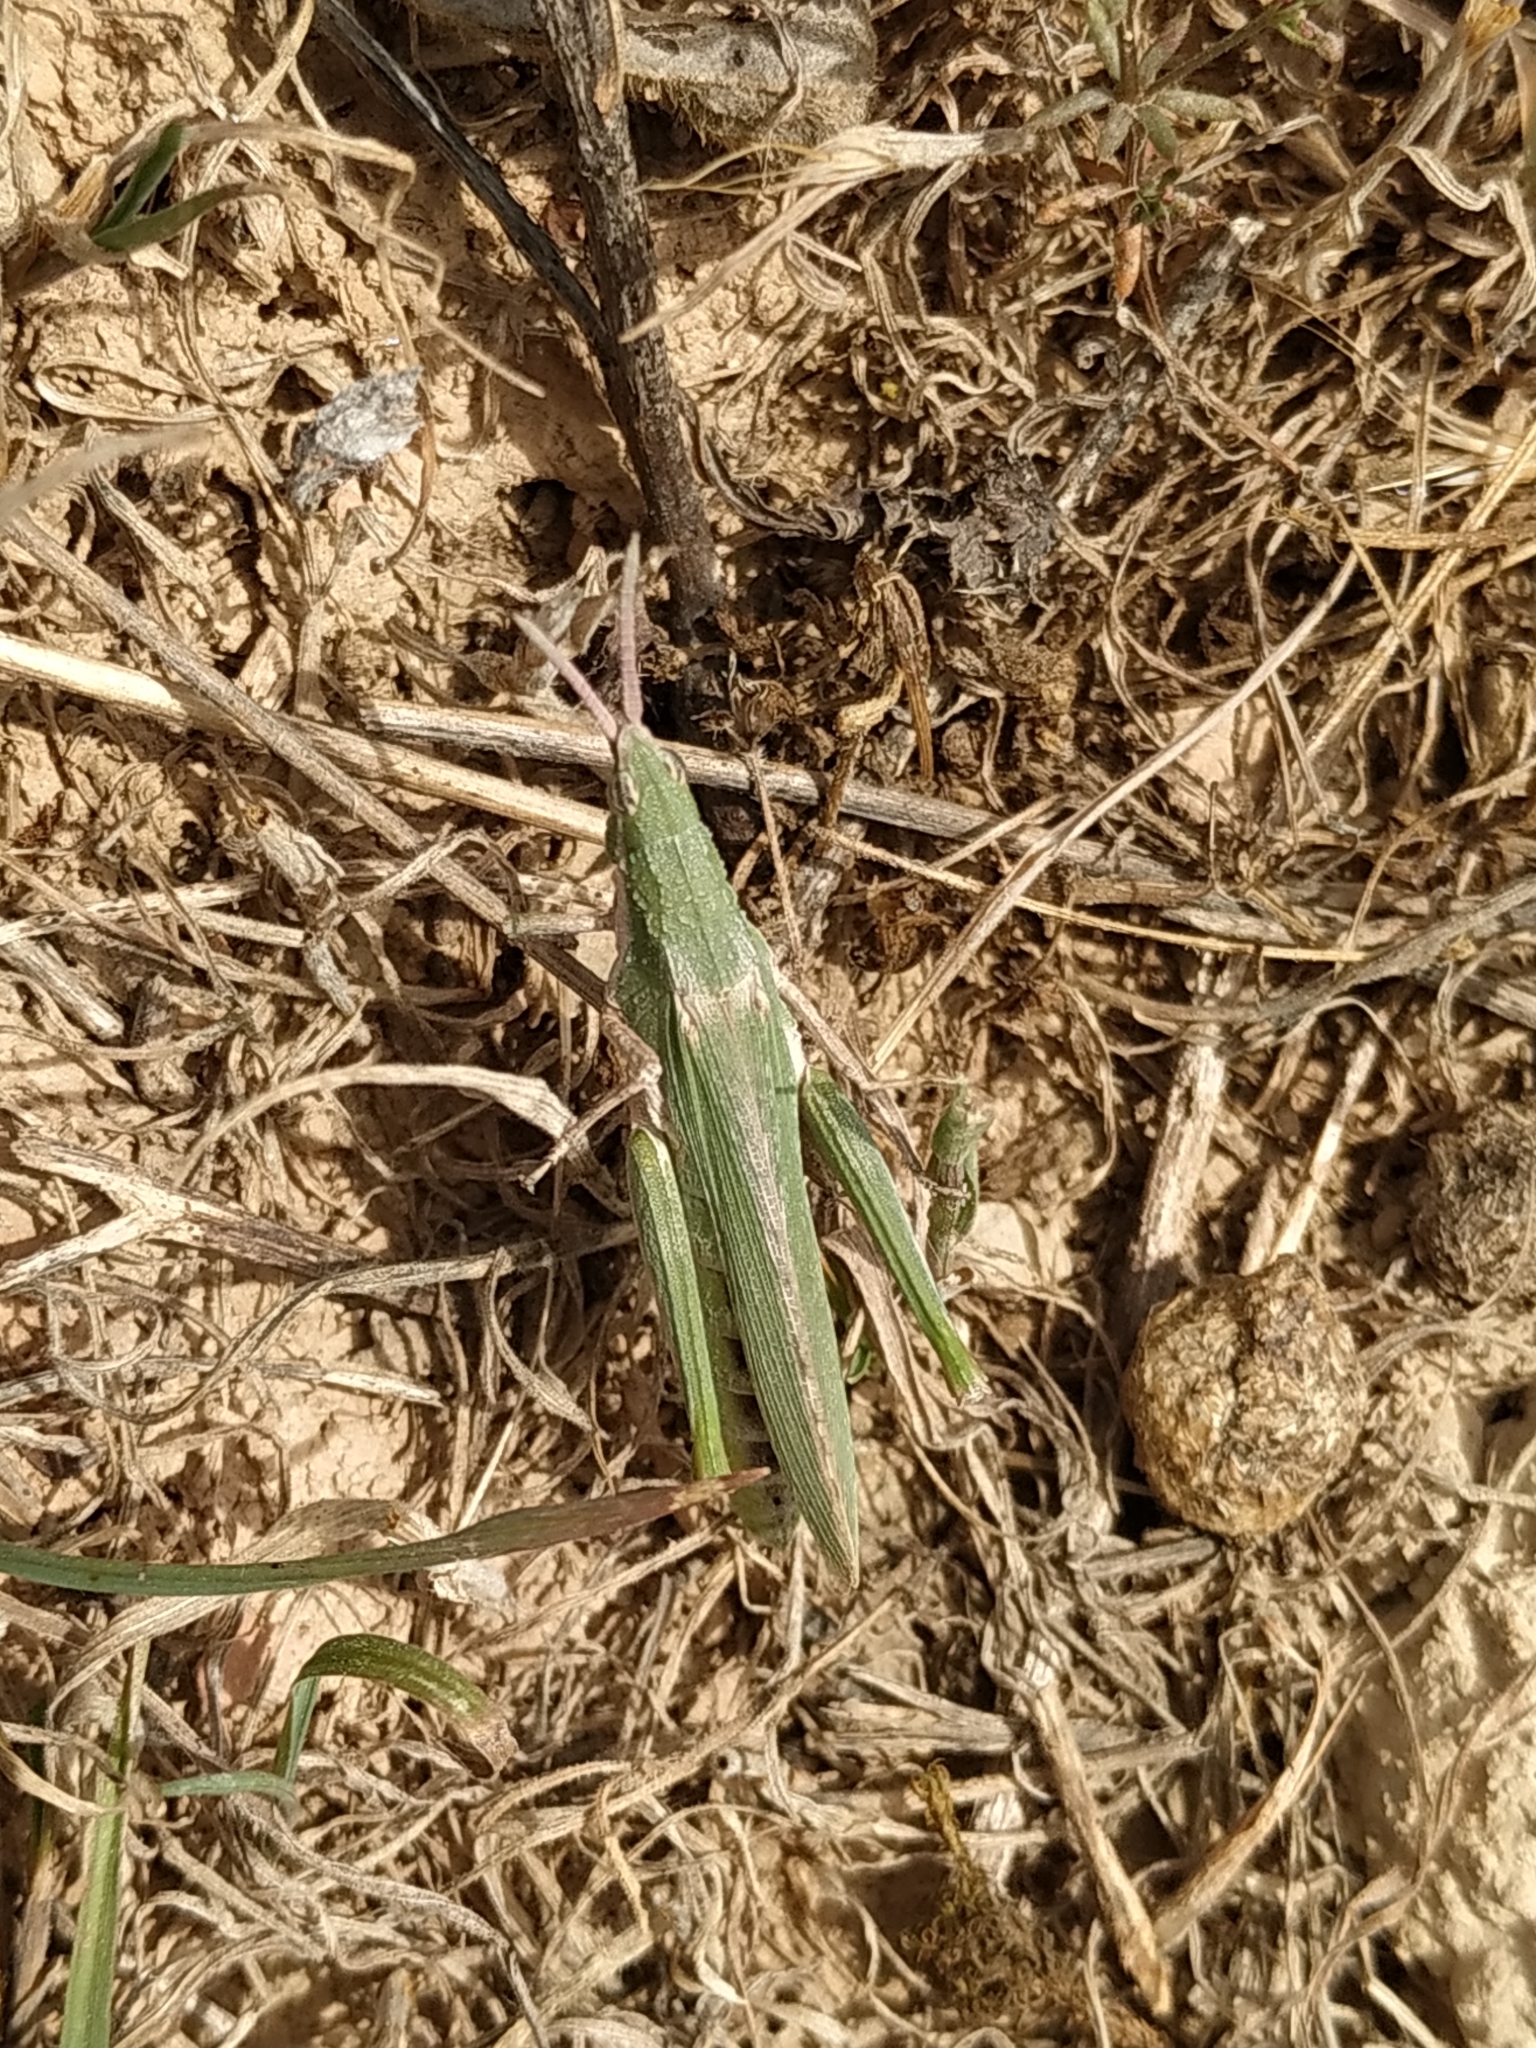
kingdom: Animalia
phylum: Arthropoda
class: Insecta
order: Orthoptera
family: Pyrgomorphidae
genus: Pyrgomorpha
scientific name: Pyrgomorpha conica
